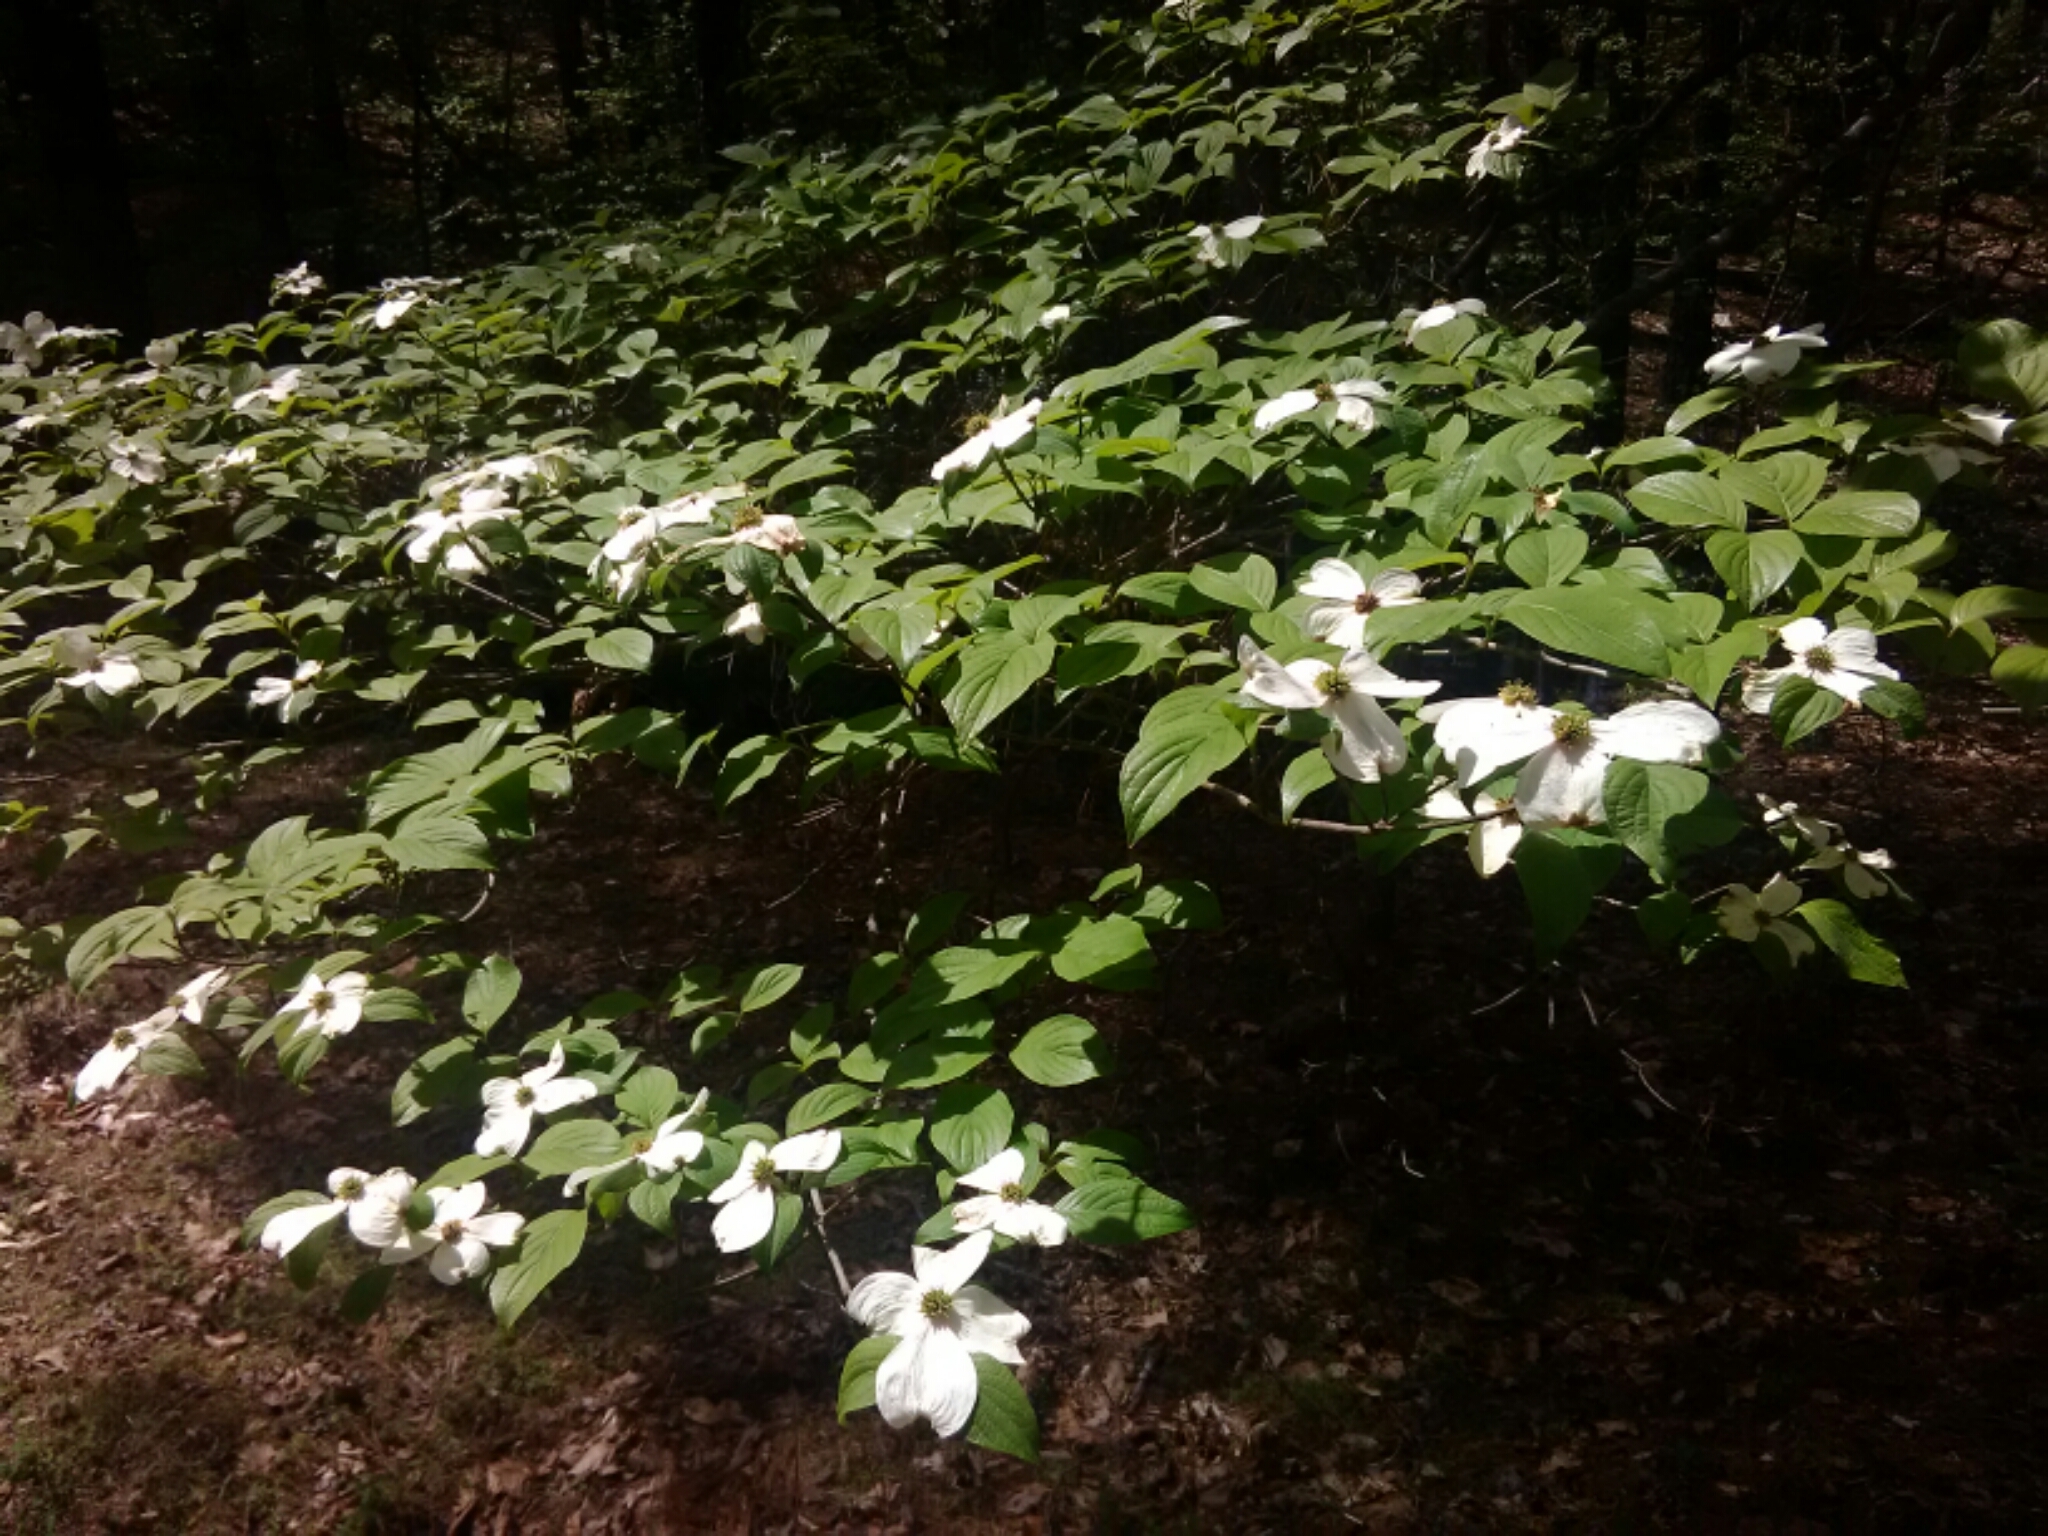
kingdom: Plantae
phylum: Tracheophyta
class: Magnoliopsida
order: Cornales
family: Cornaceae
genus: Cornus
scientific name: Cornus florida
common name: Flowering dogwood
